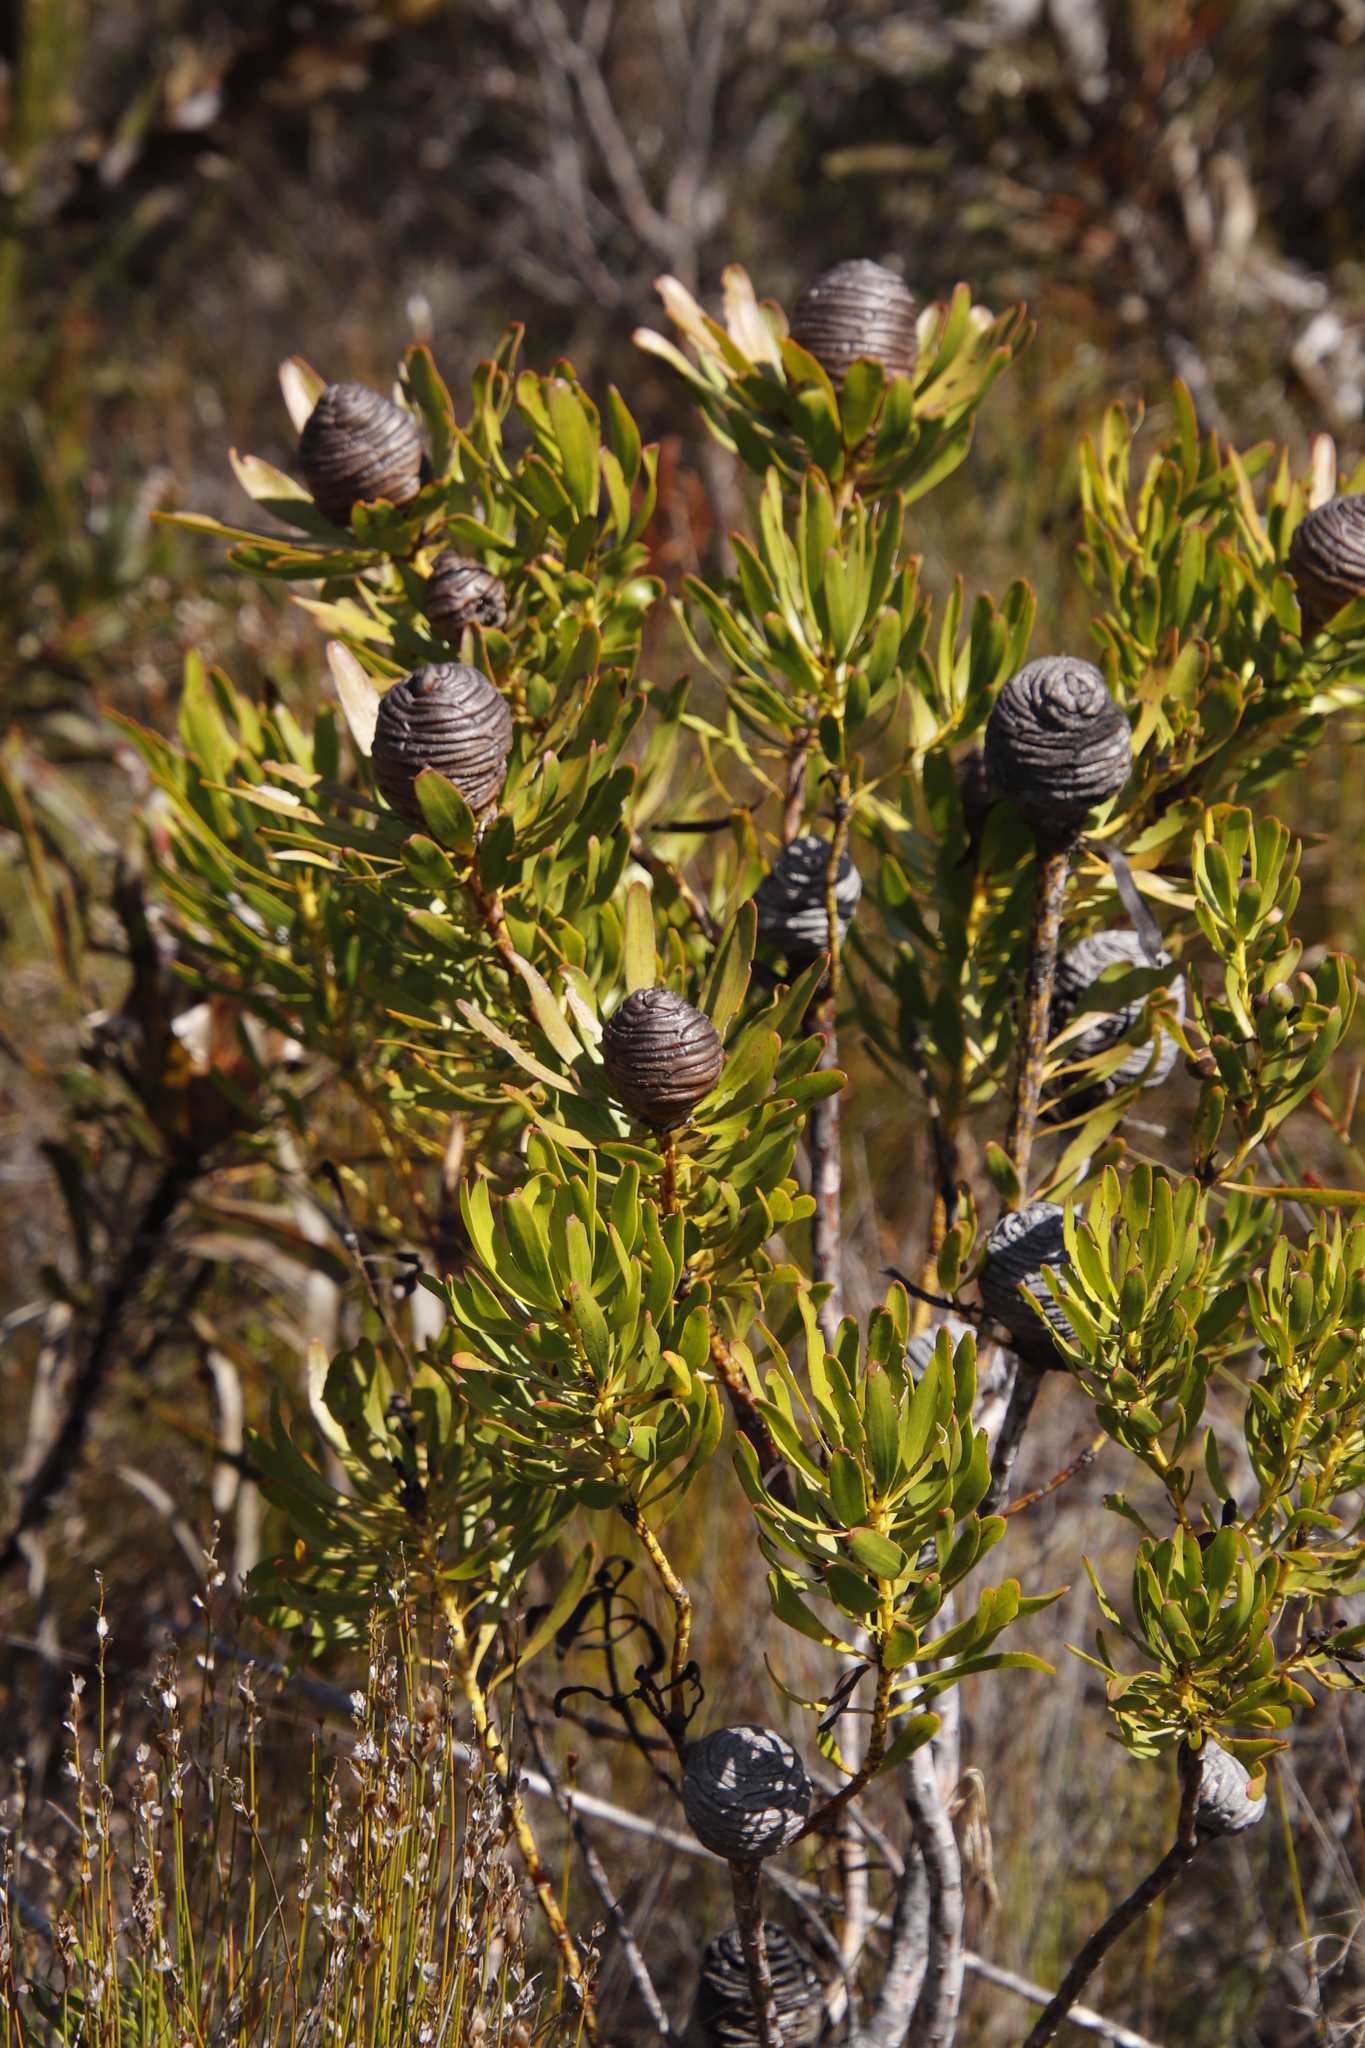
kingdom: Plantae
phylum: Tracheophyta
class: Magnoliopsida
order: Proteales
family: Proteaceae
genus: Leucadendron
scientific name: Leucadendron platyspermum
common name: Plate-seed conebush
